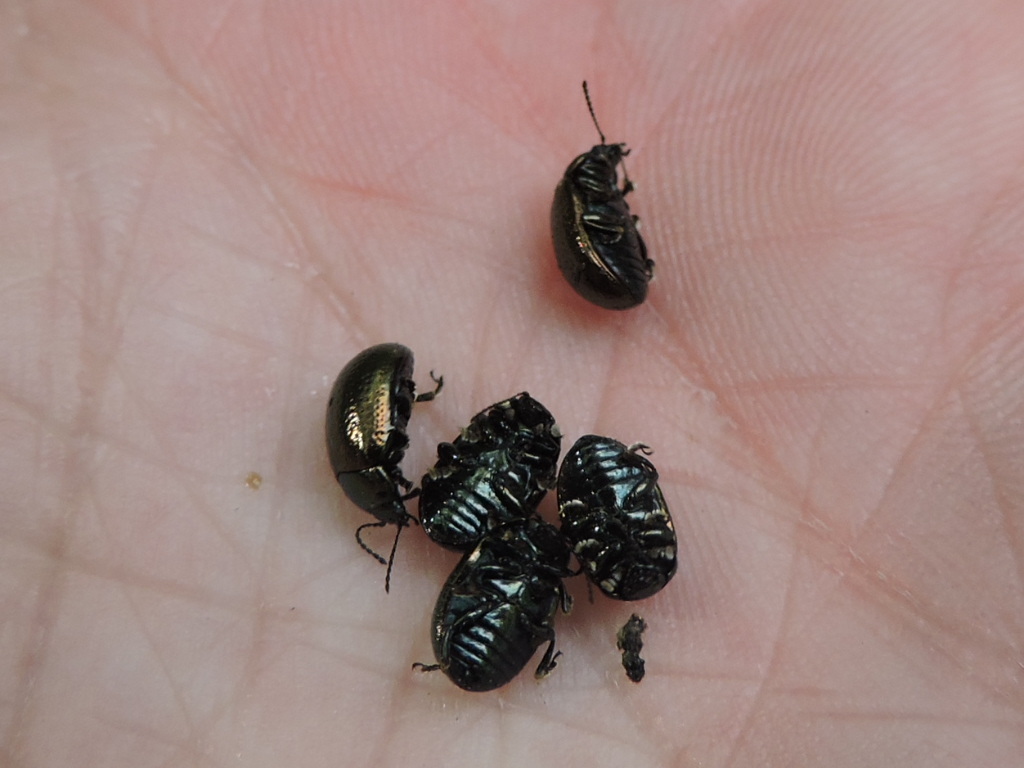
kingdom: Animalia
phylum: Arthropoda
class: Insecta
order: Coleoptera
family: Chrysomelidae
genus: Chrysolina
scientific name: Chrysolina hyperici
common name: St. johnswort beetle
